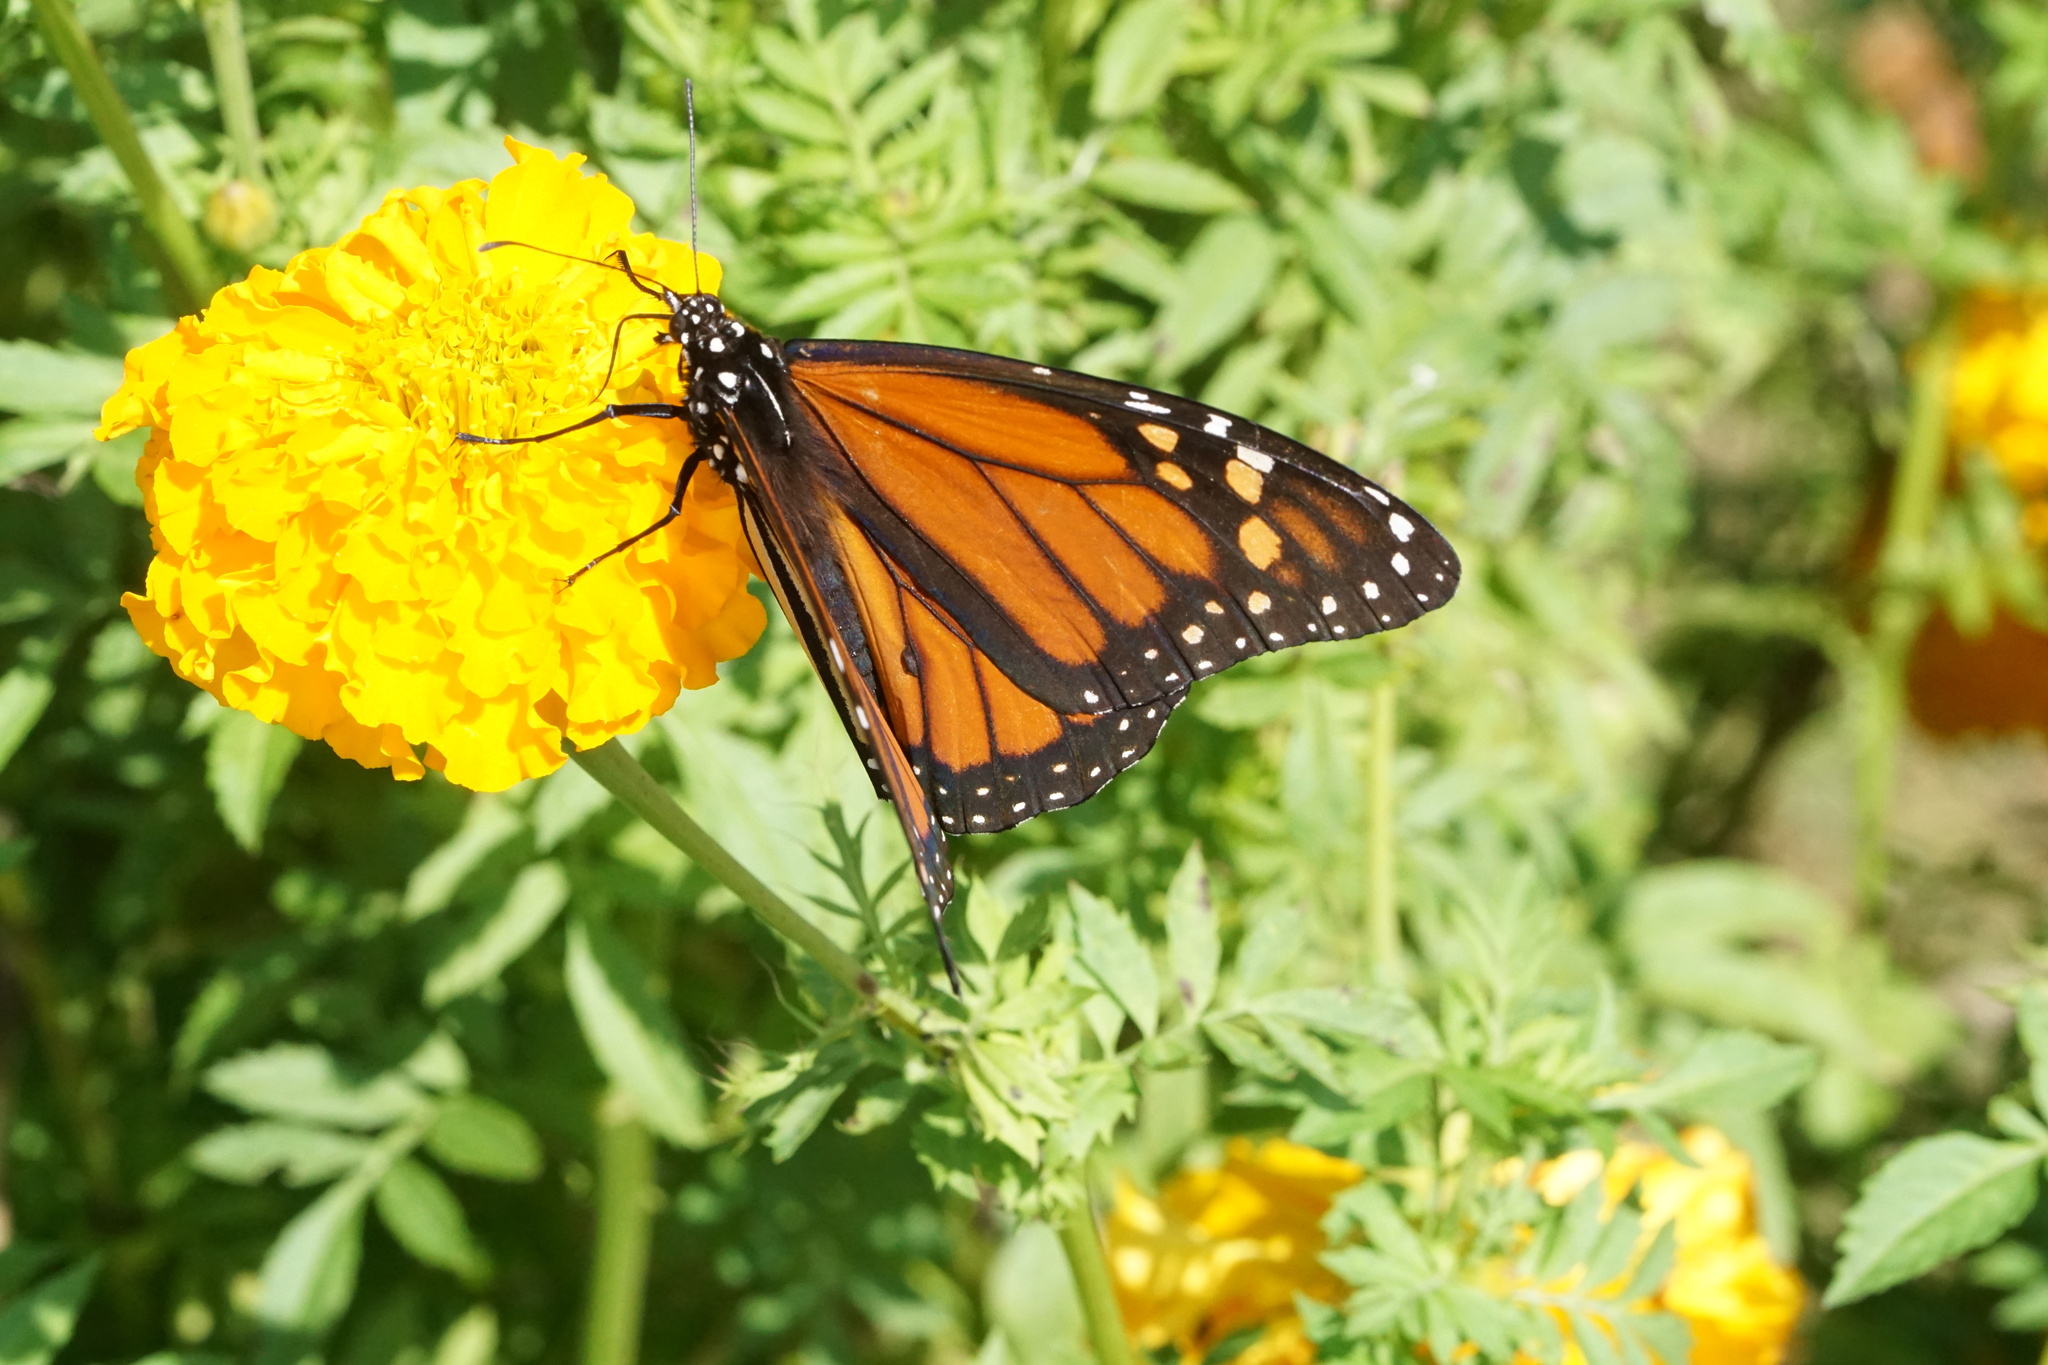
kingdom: Animalia
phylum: Arthropoda
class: Insecta
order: Lepidoptera
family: Nymphalidae
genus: Danaus
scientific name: Danaus plexippus
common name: Monarch
